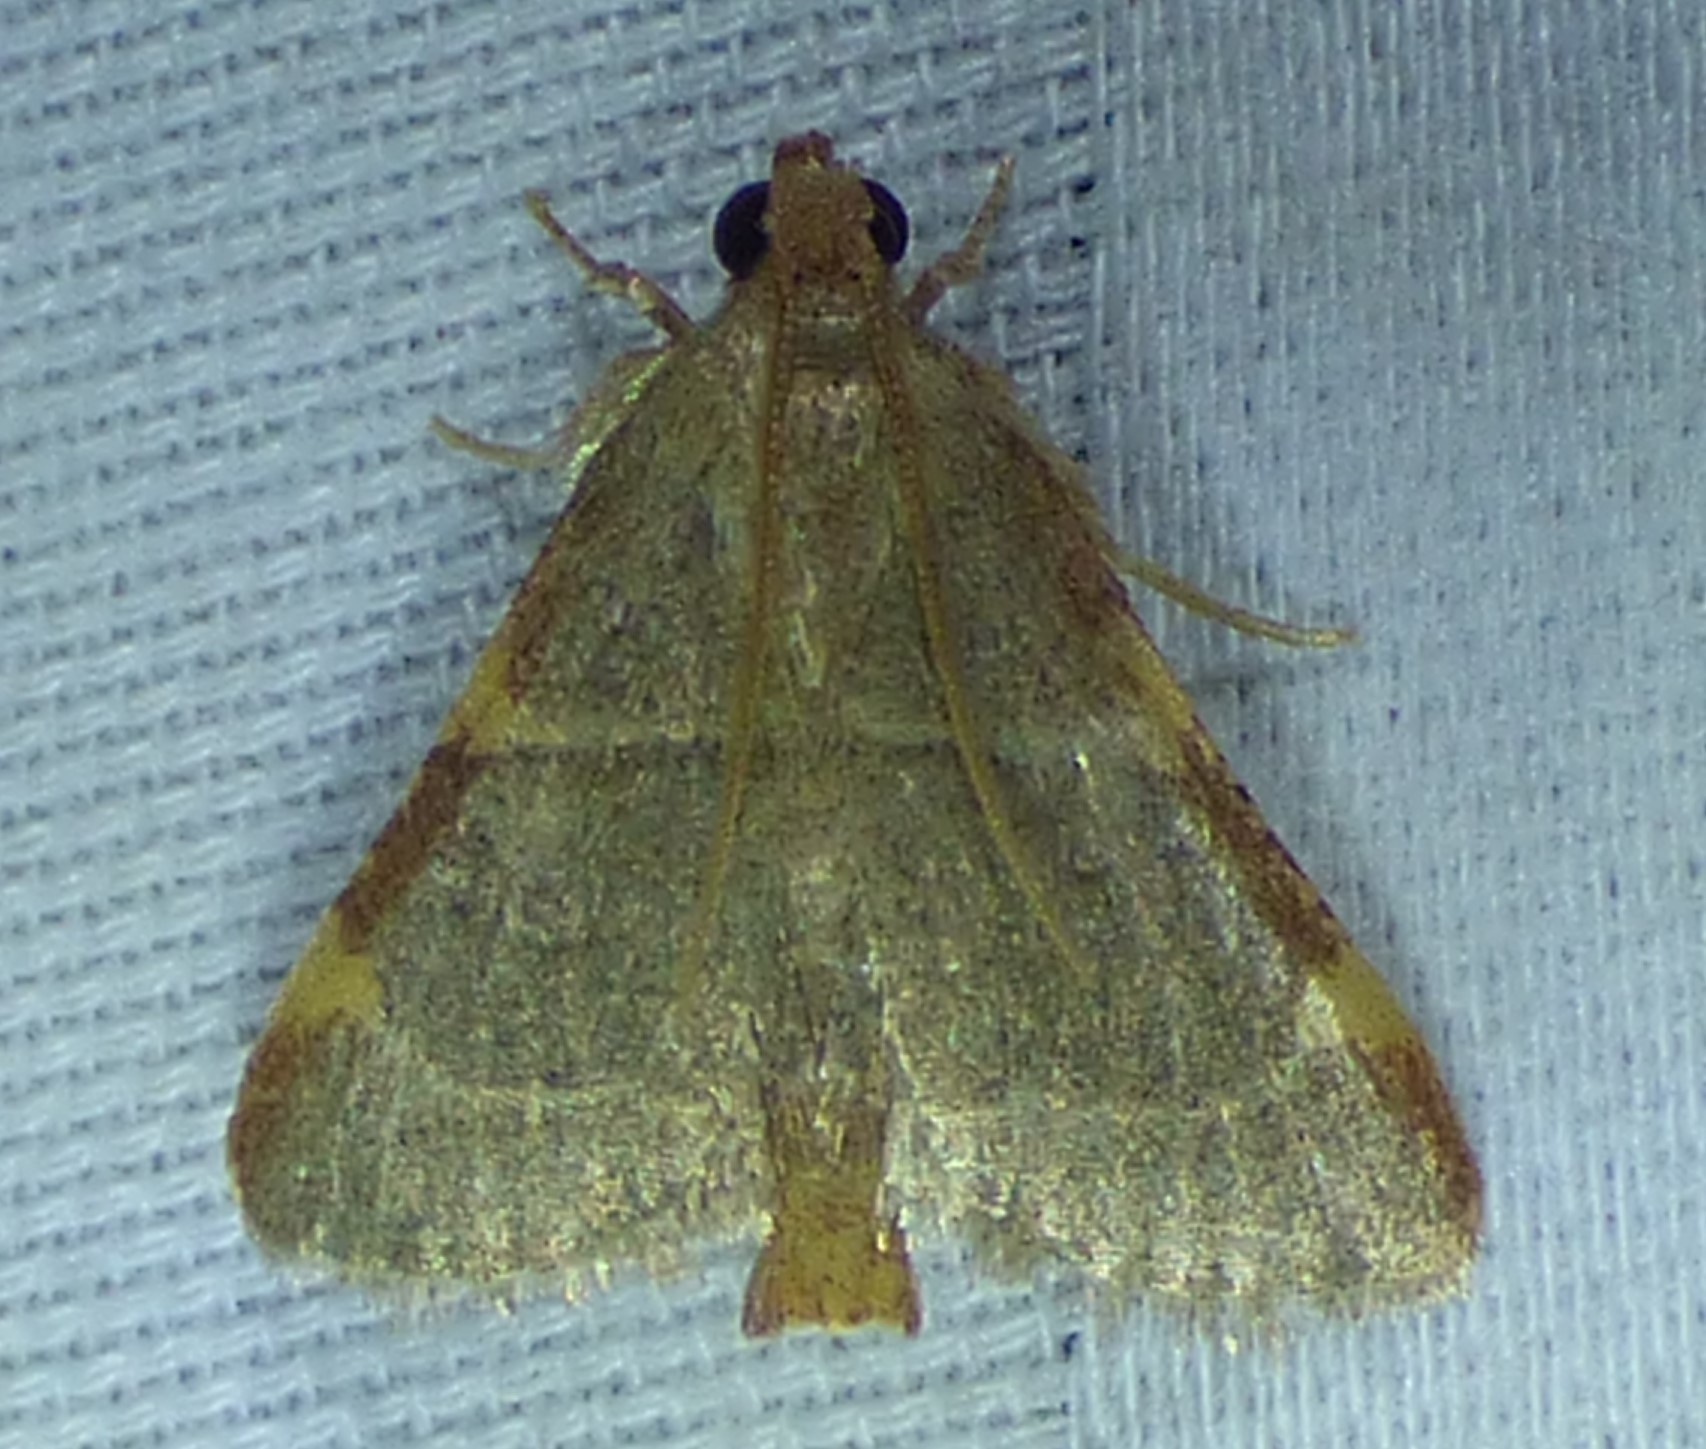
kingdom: Animalia
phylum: Arthropoda
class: Insecta
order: Lepidoptera
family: Pyralidae
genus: Hypsopygia
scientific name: Hypsopygia binodulalis
